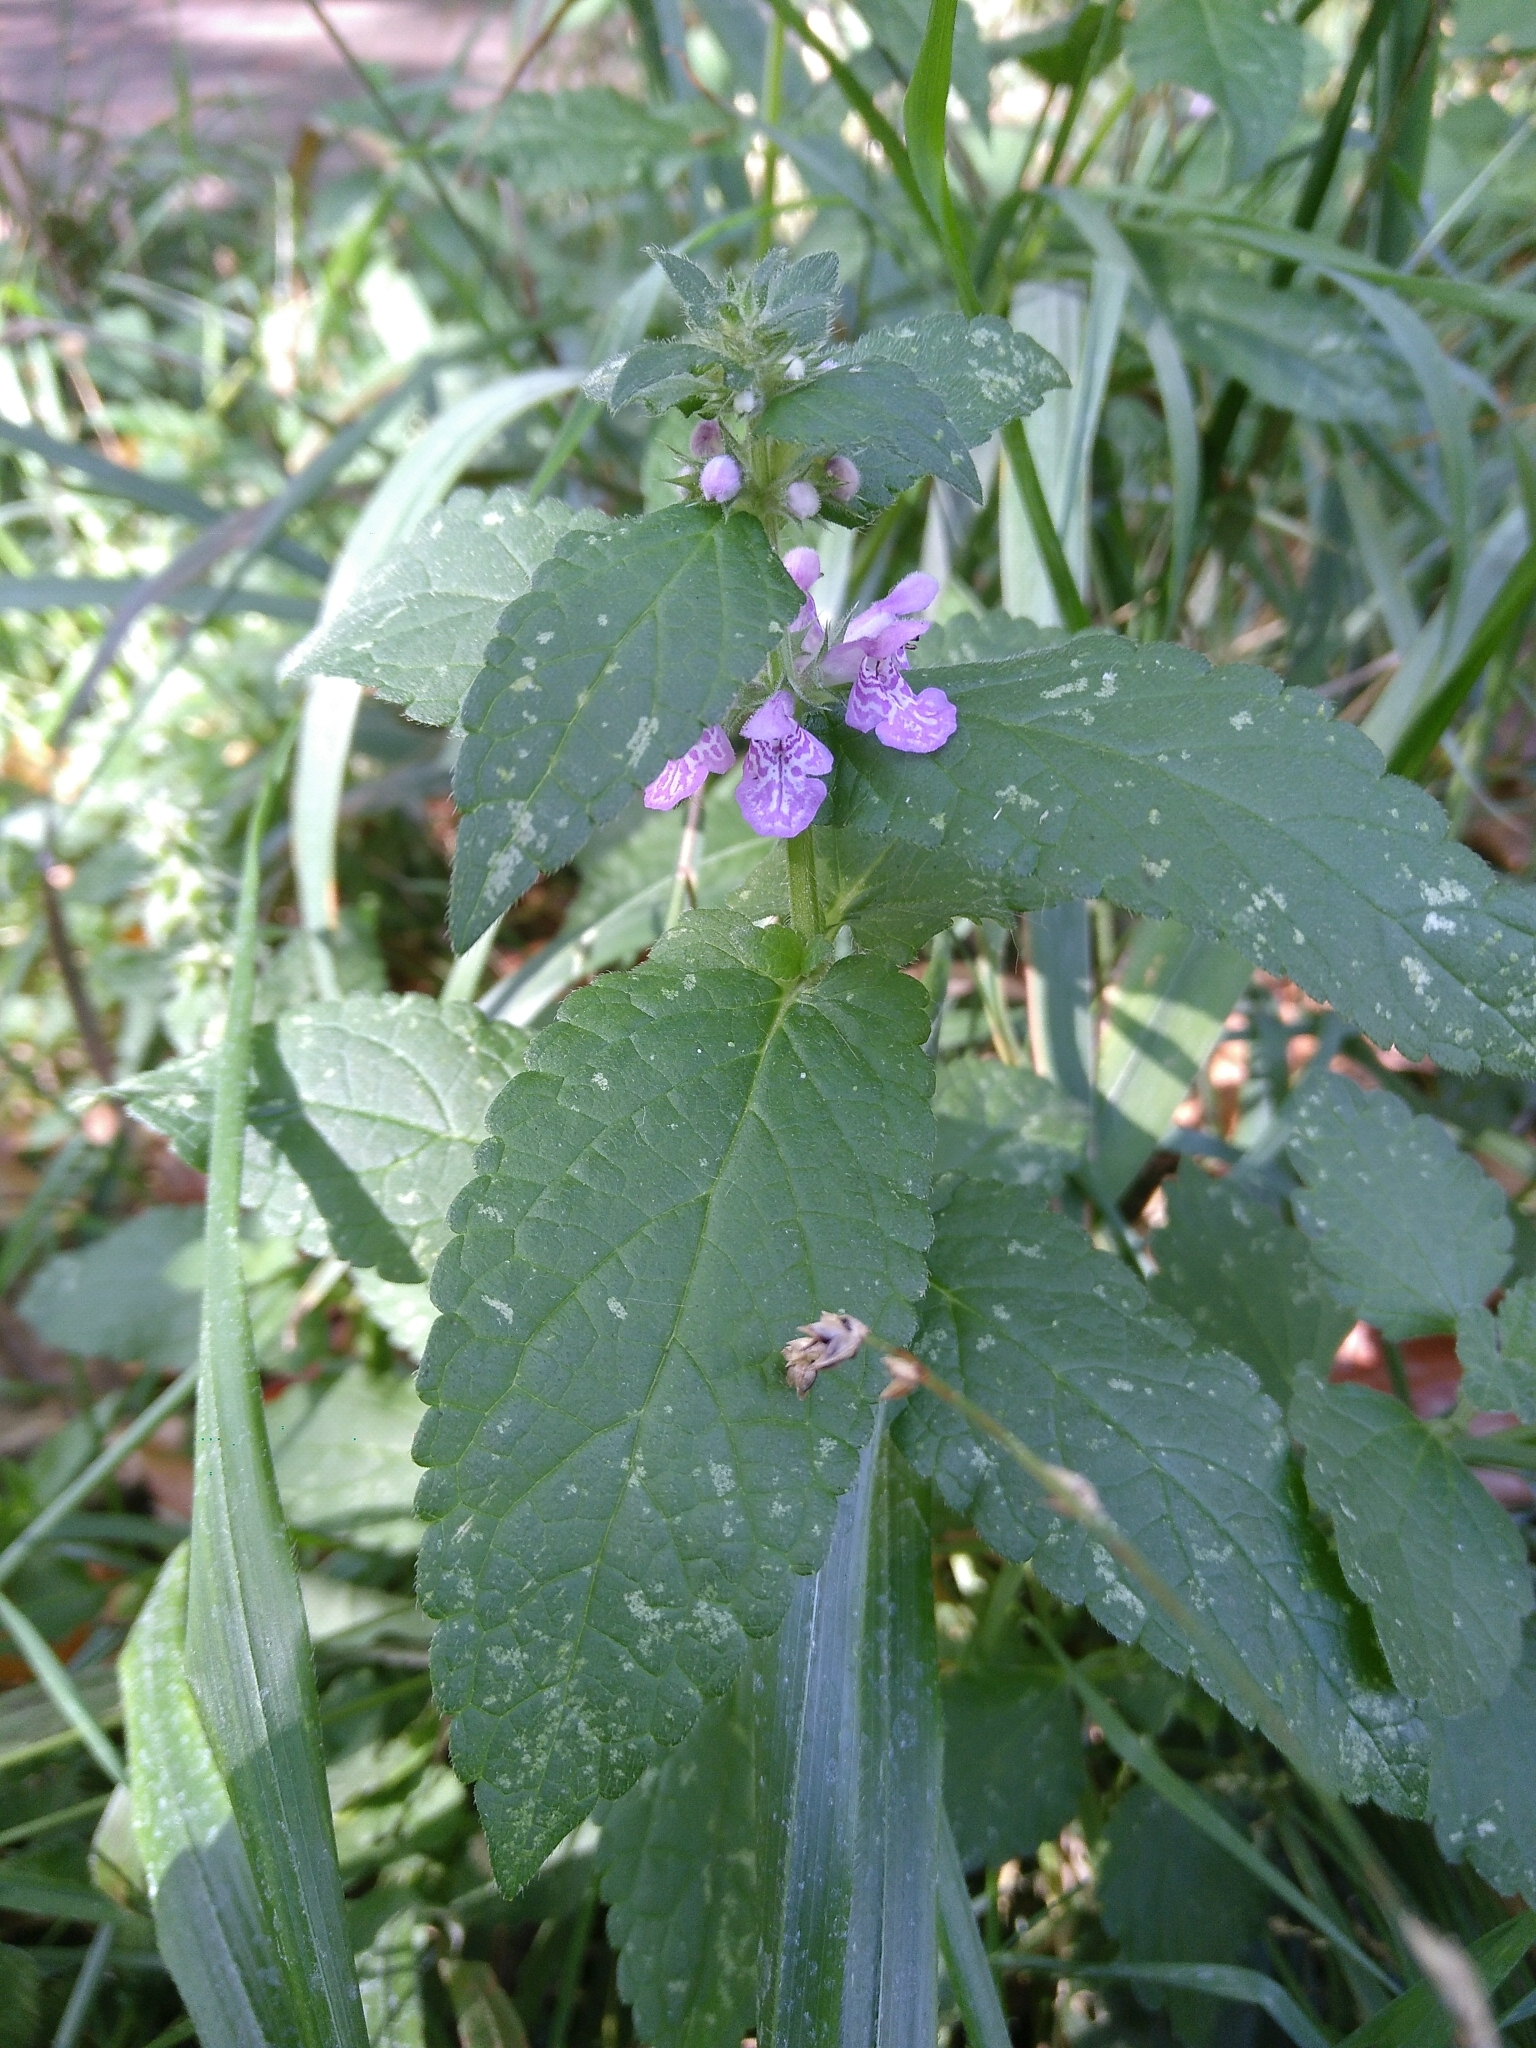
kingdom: Plantae
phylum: Tracheophyta
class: Magnoliopsida
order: Lamiales
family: Lamiaceae
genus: Stachys
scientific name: Stachys palustris
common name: Marsh woundwort
